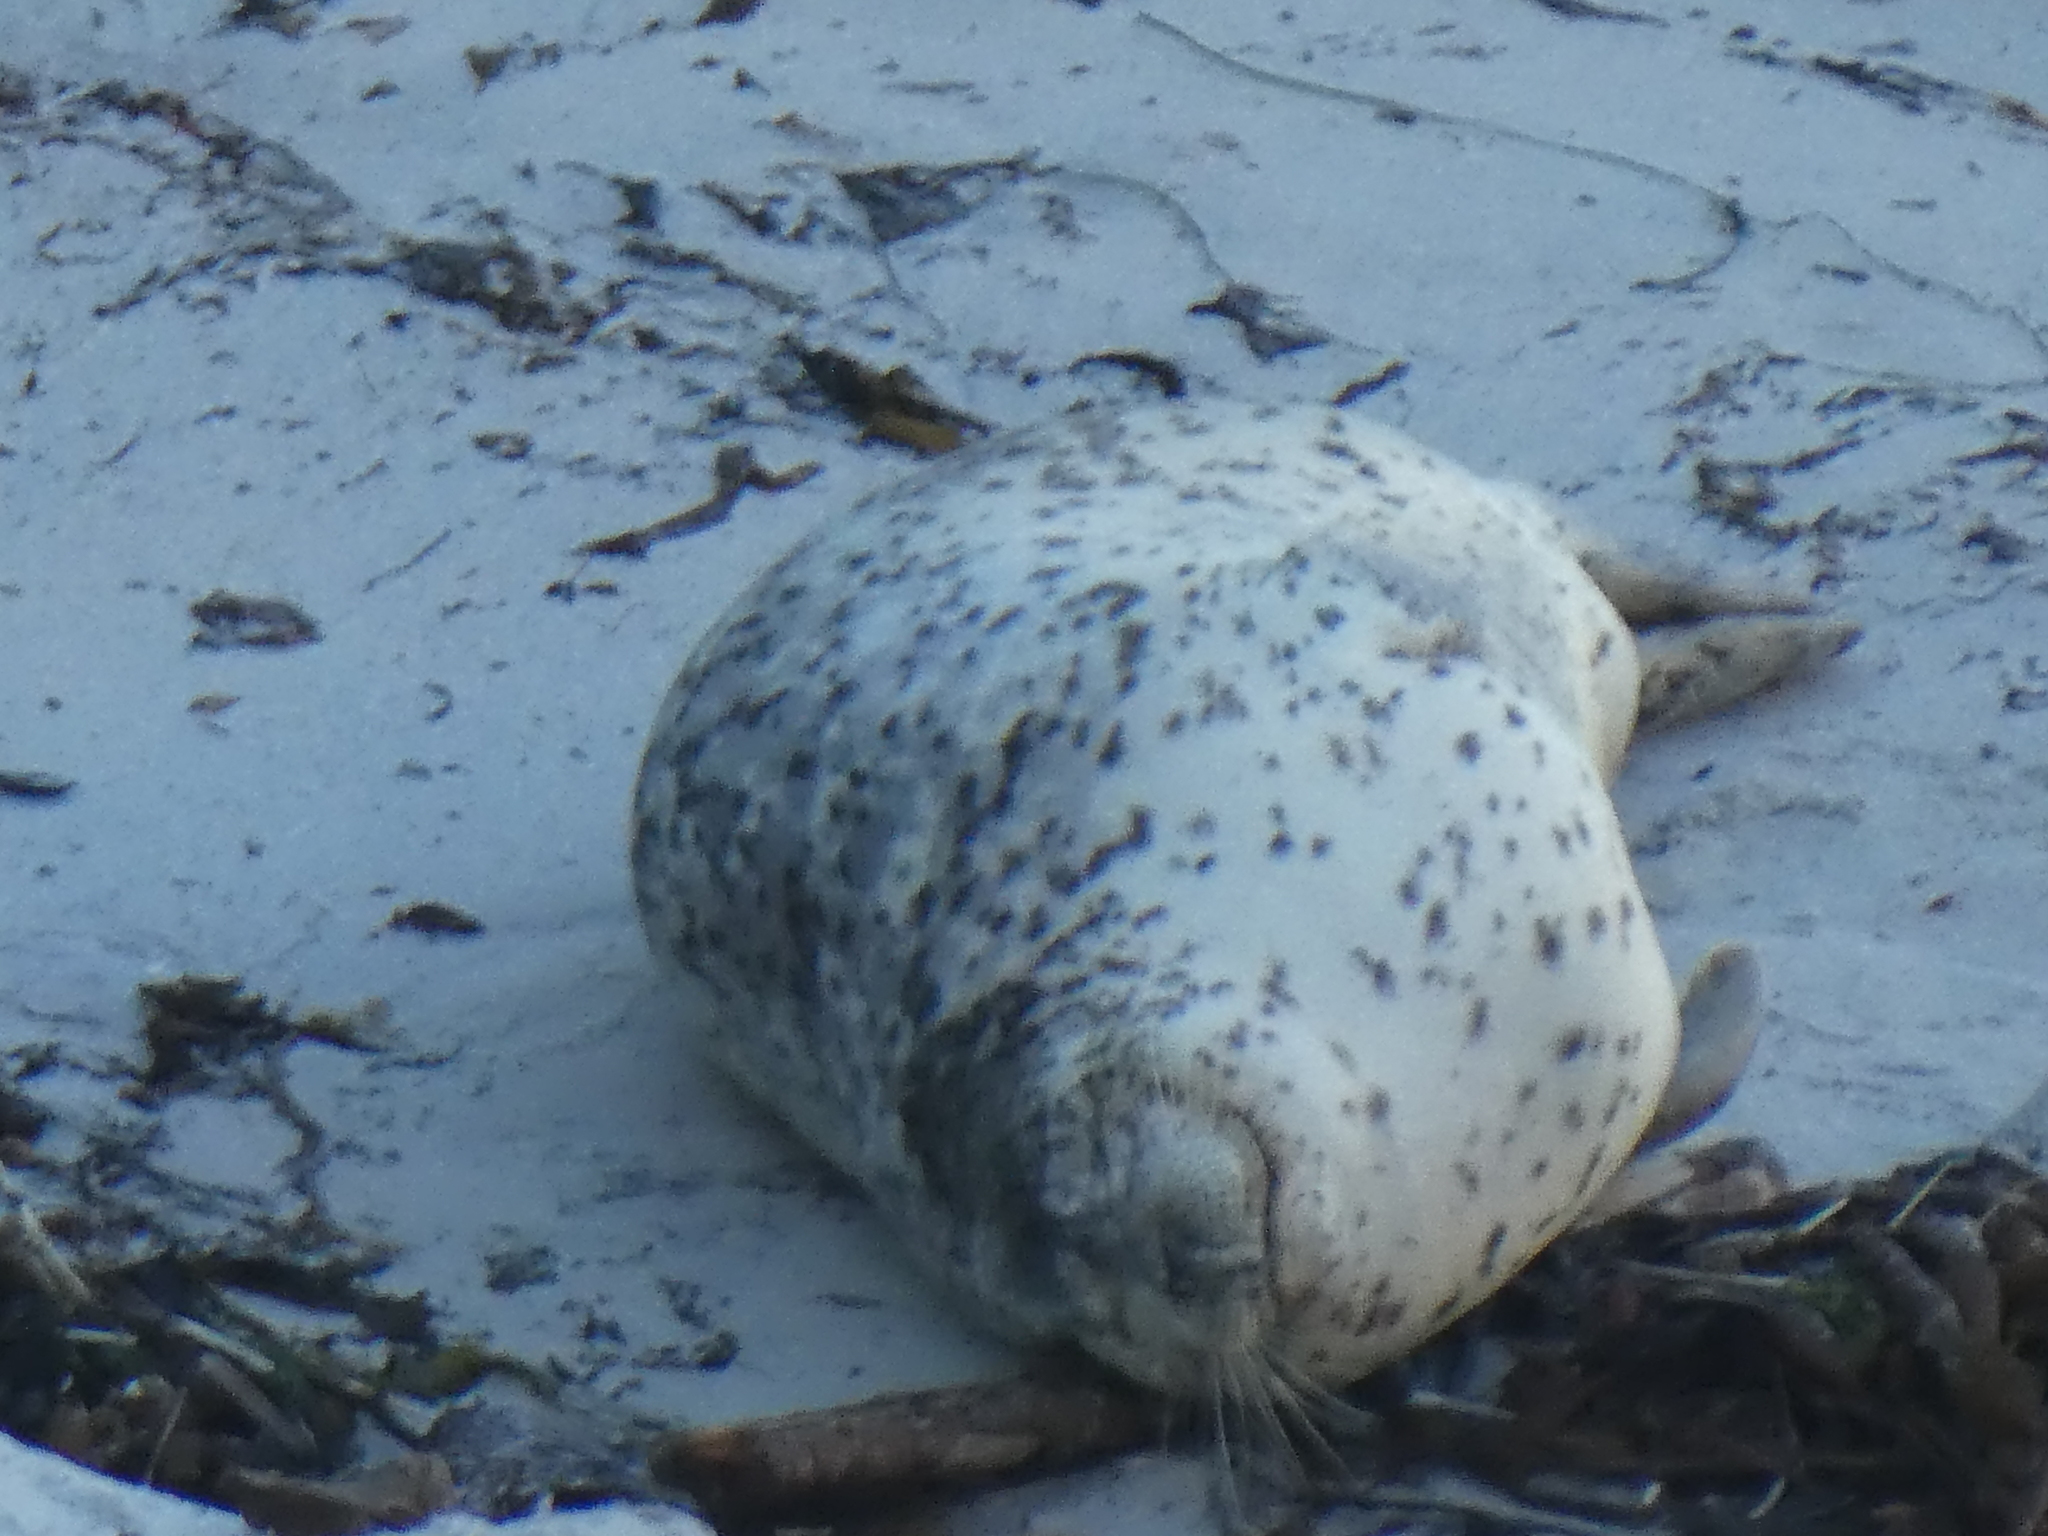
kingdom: Animalia
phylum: Chordata
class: Mammalia
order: Carnivora
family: Phocidae
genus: Phoca
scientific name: Phoca vitulina
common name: Harbor seal
